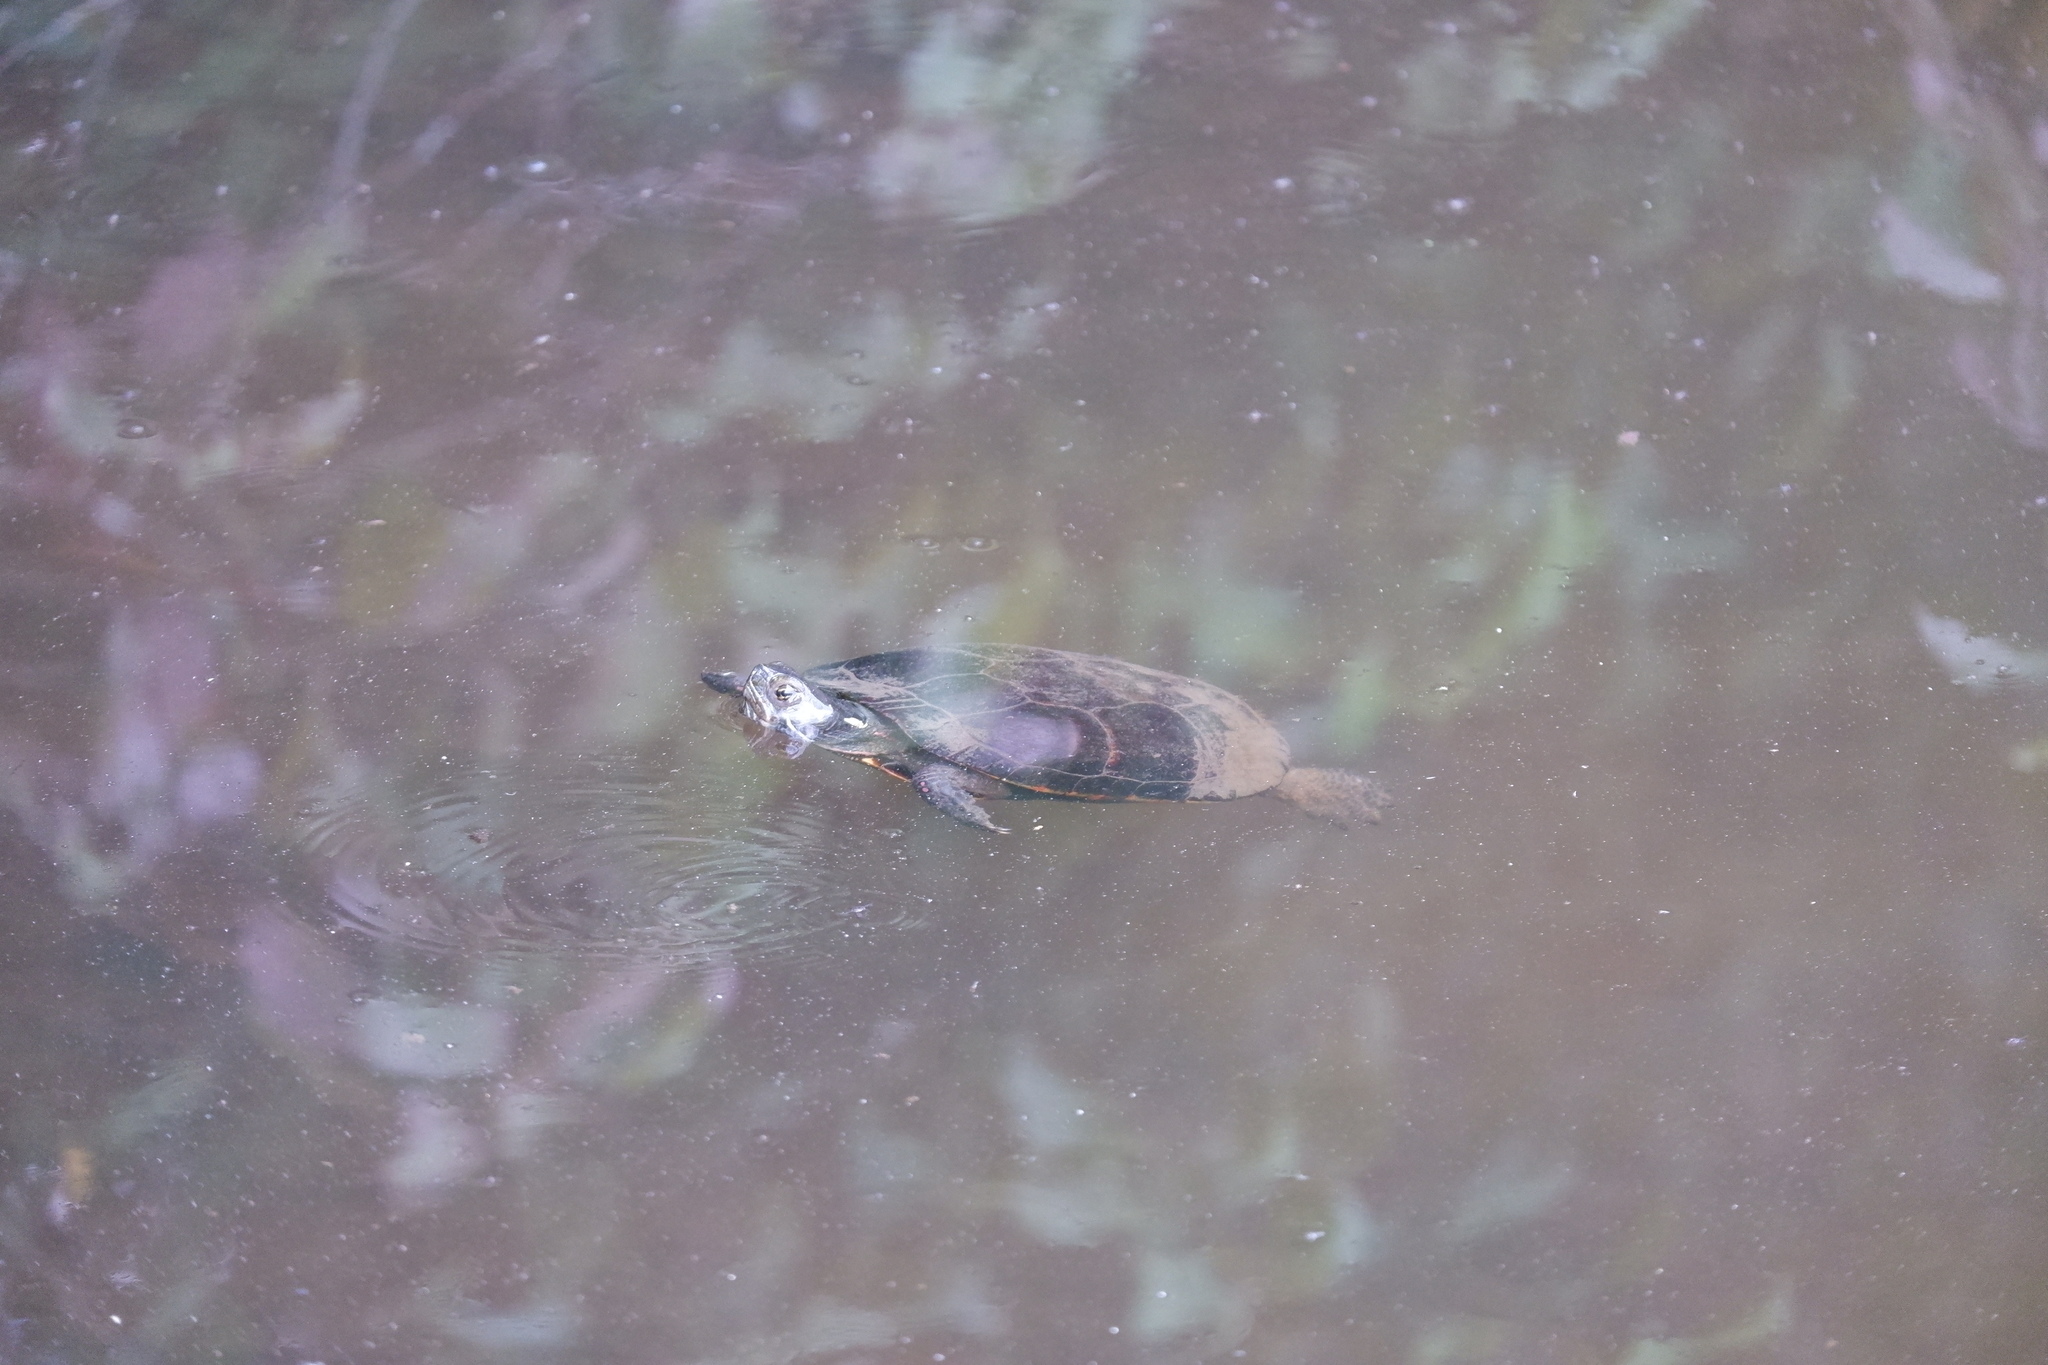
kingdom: Animalia
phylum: Chordata
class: Testudines
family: Emydidae
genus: Chrysemys
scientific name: Chrysemys picta
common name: Painted turtle
